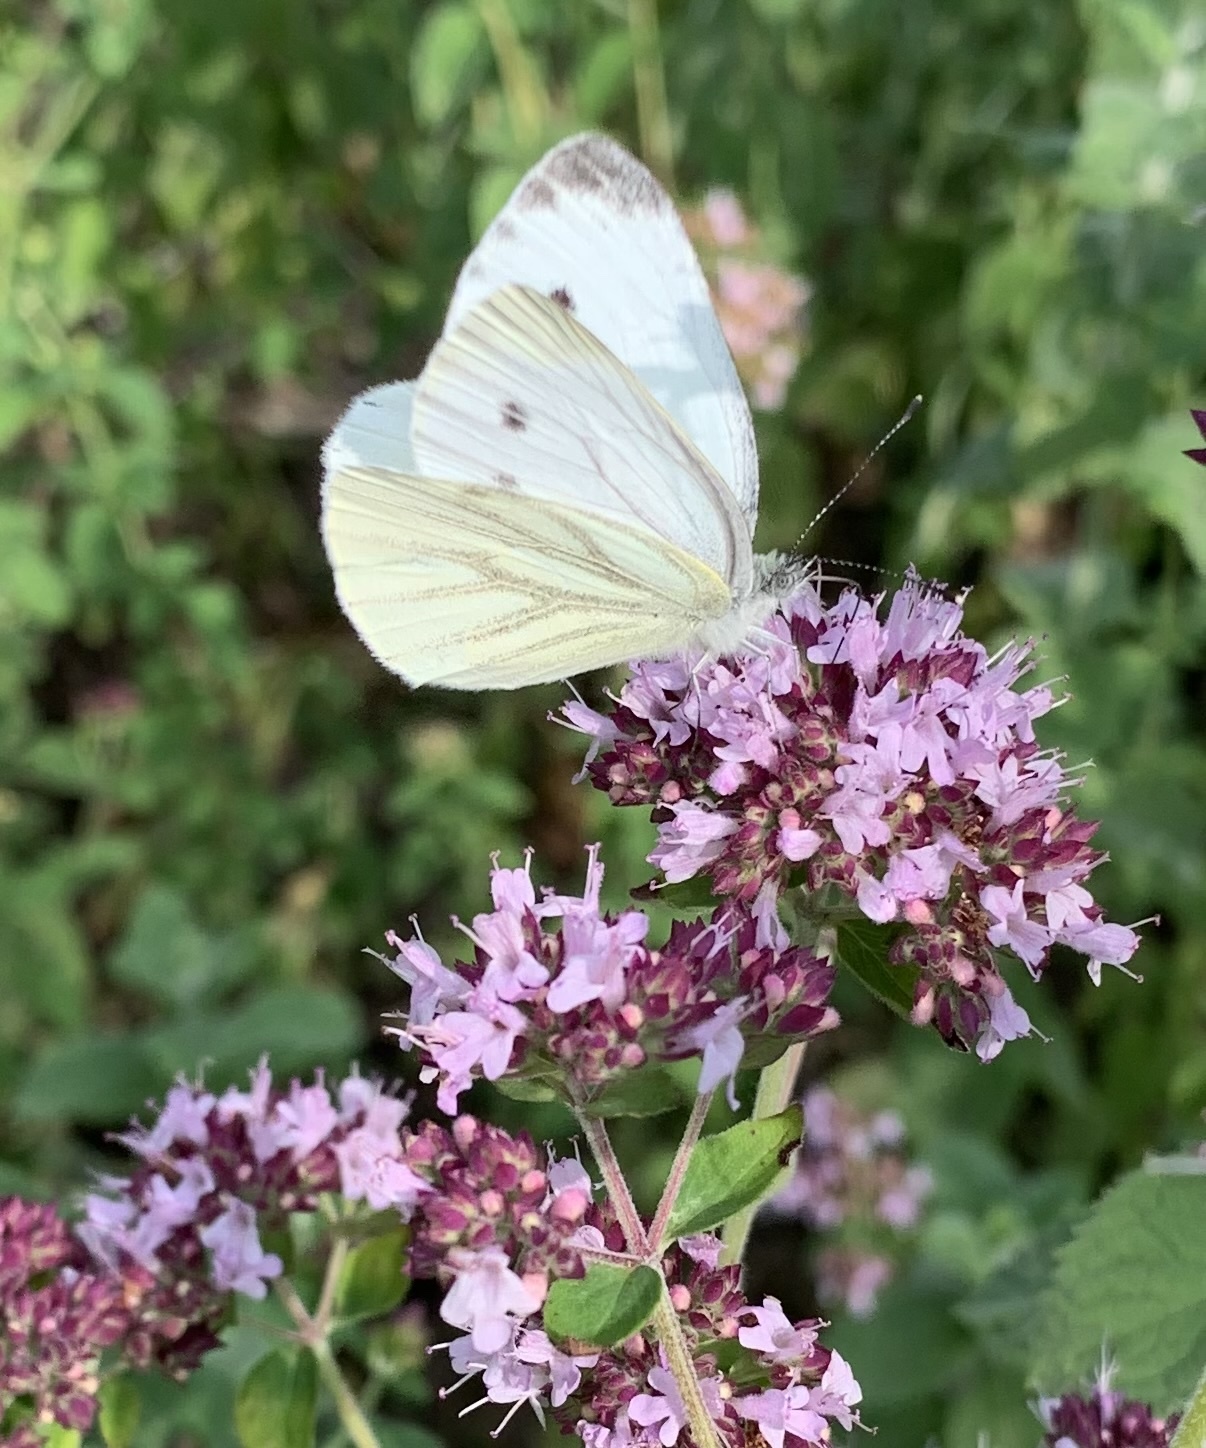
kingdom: Animalia
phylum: Arthropoda
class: Insecta
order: Lepidoptera
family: Pieridae
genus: Pieris
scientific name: Pieris napi
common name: Green-veined white
